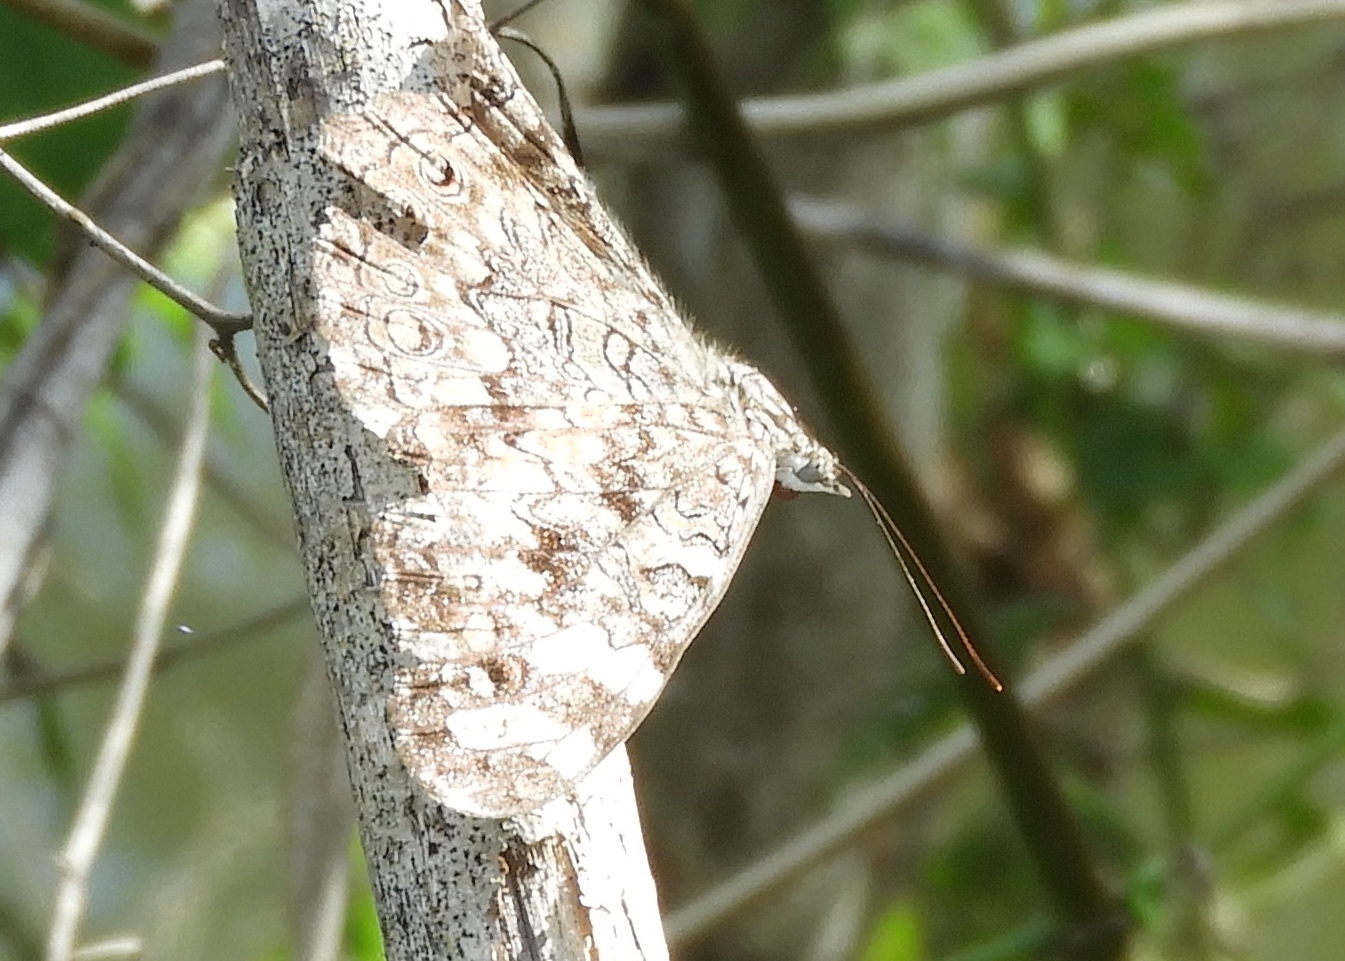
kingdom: Animalia
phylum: Arthropoda
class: Insecta
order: Lepidoptera
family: Nymphalidae
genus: Hamadryas
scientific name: Hamadryas februa
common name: Gray cracker
